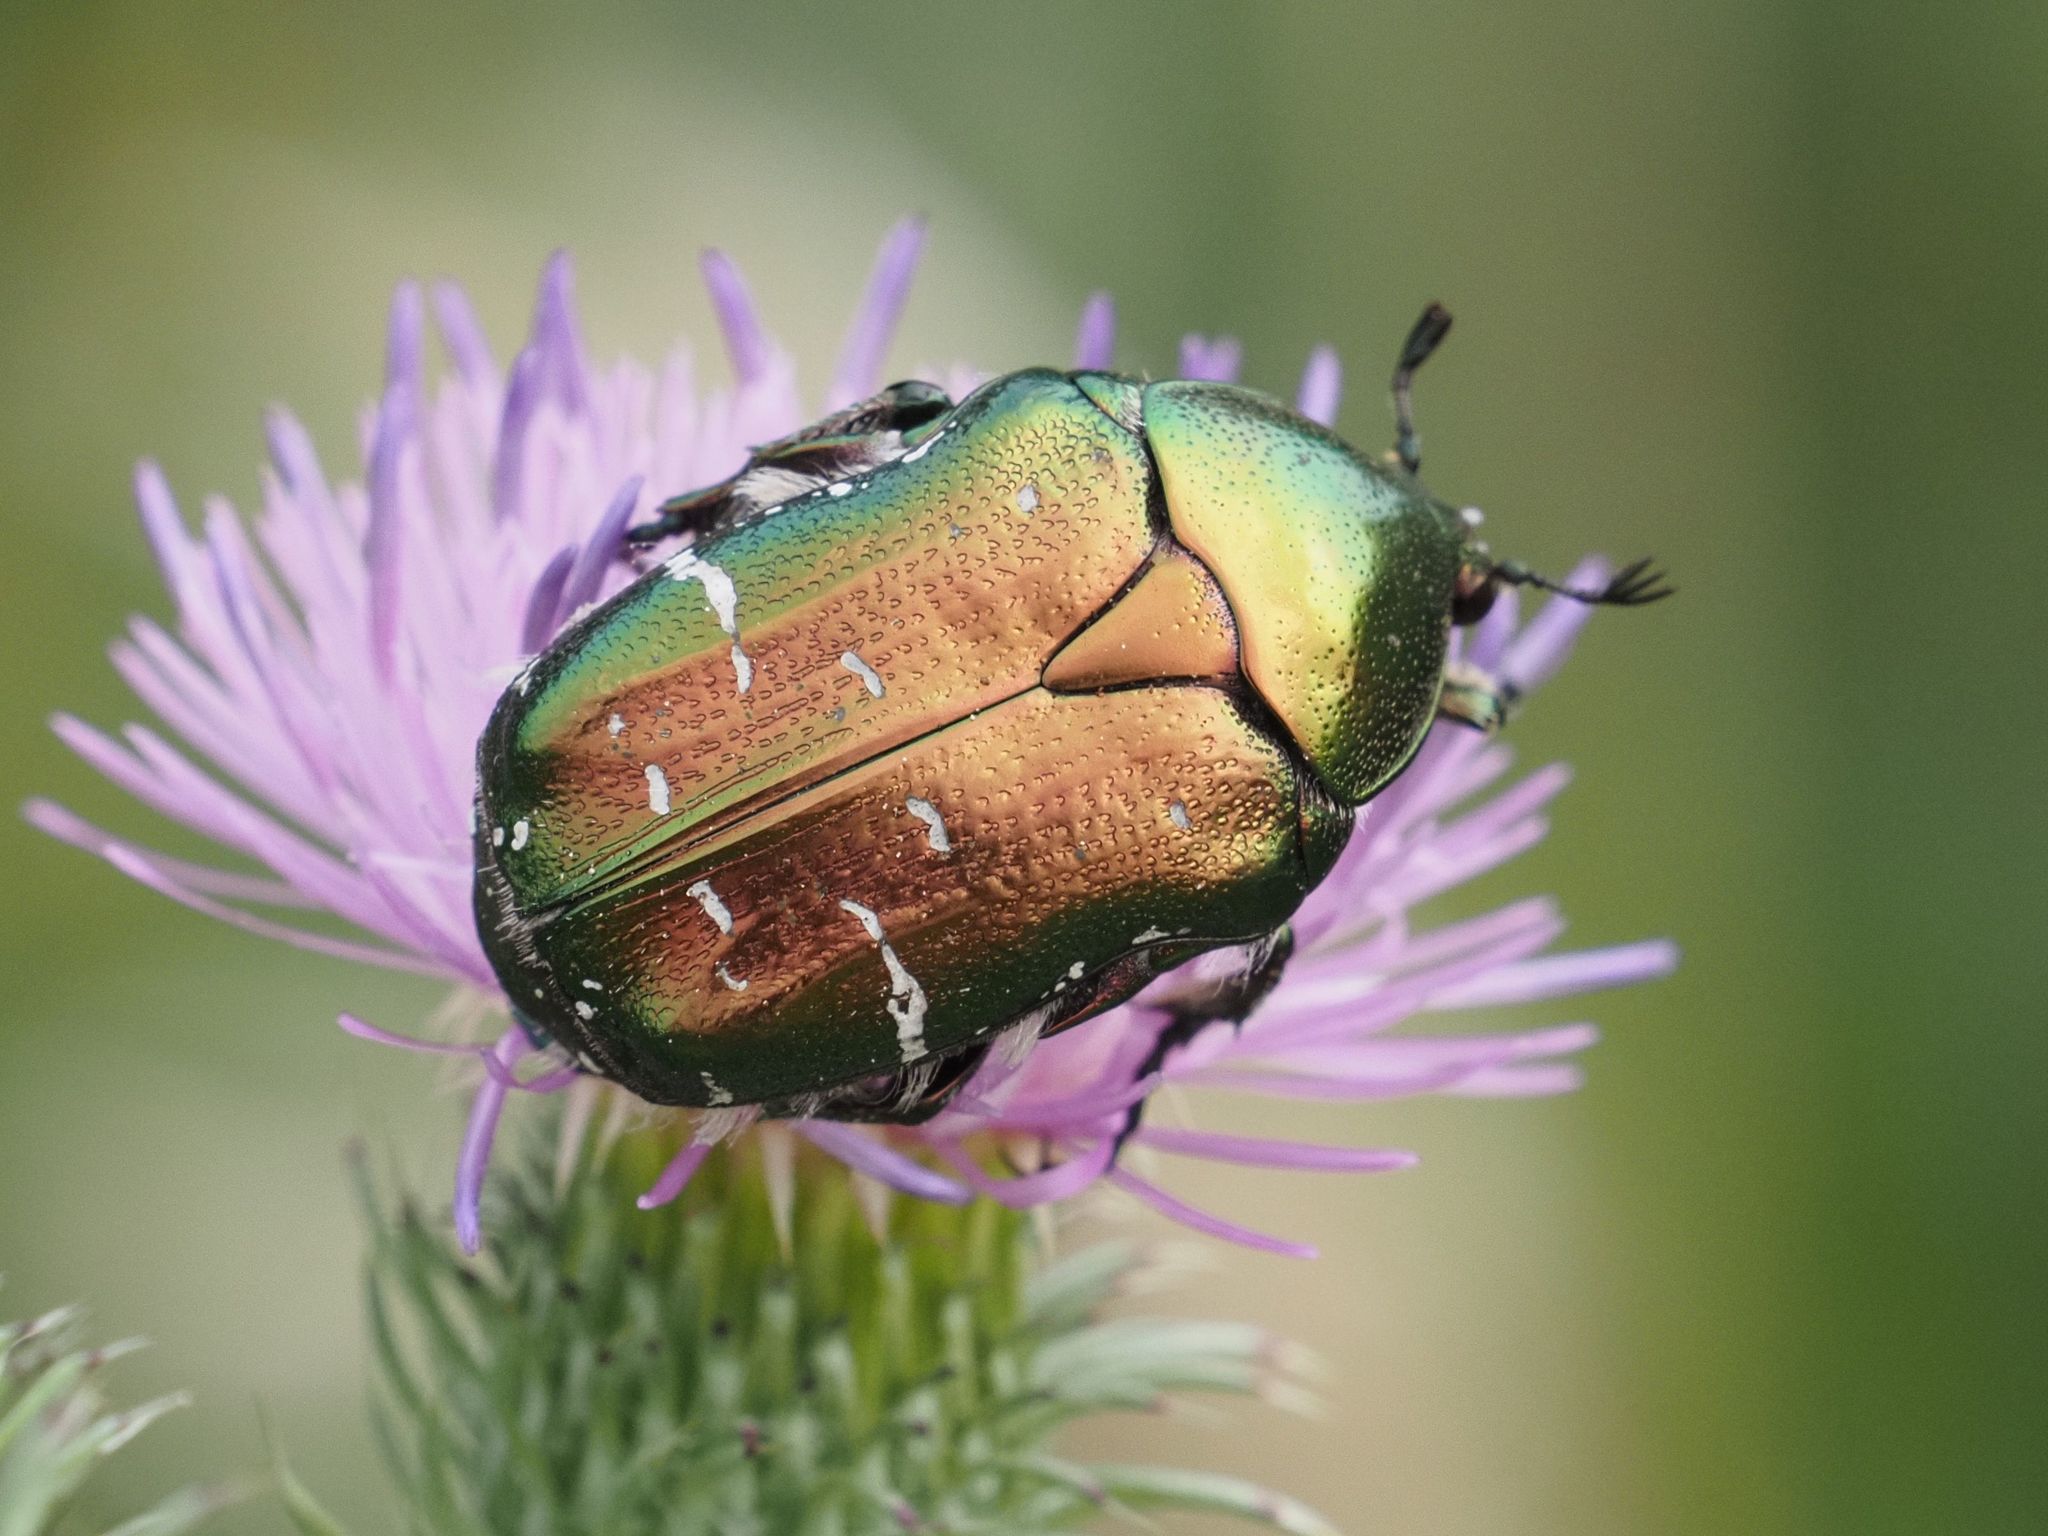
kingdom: Animalia
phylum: Arthropoda
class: Insecta
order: Coleoptera
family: Scarabaeidae
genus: Cetonia
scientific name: Cetonia aurata
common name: Rose chafer
